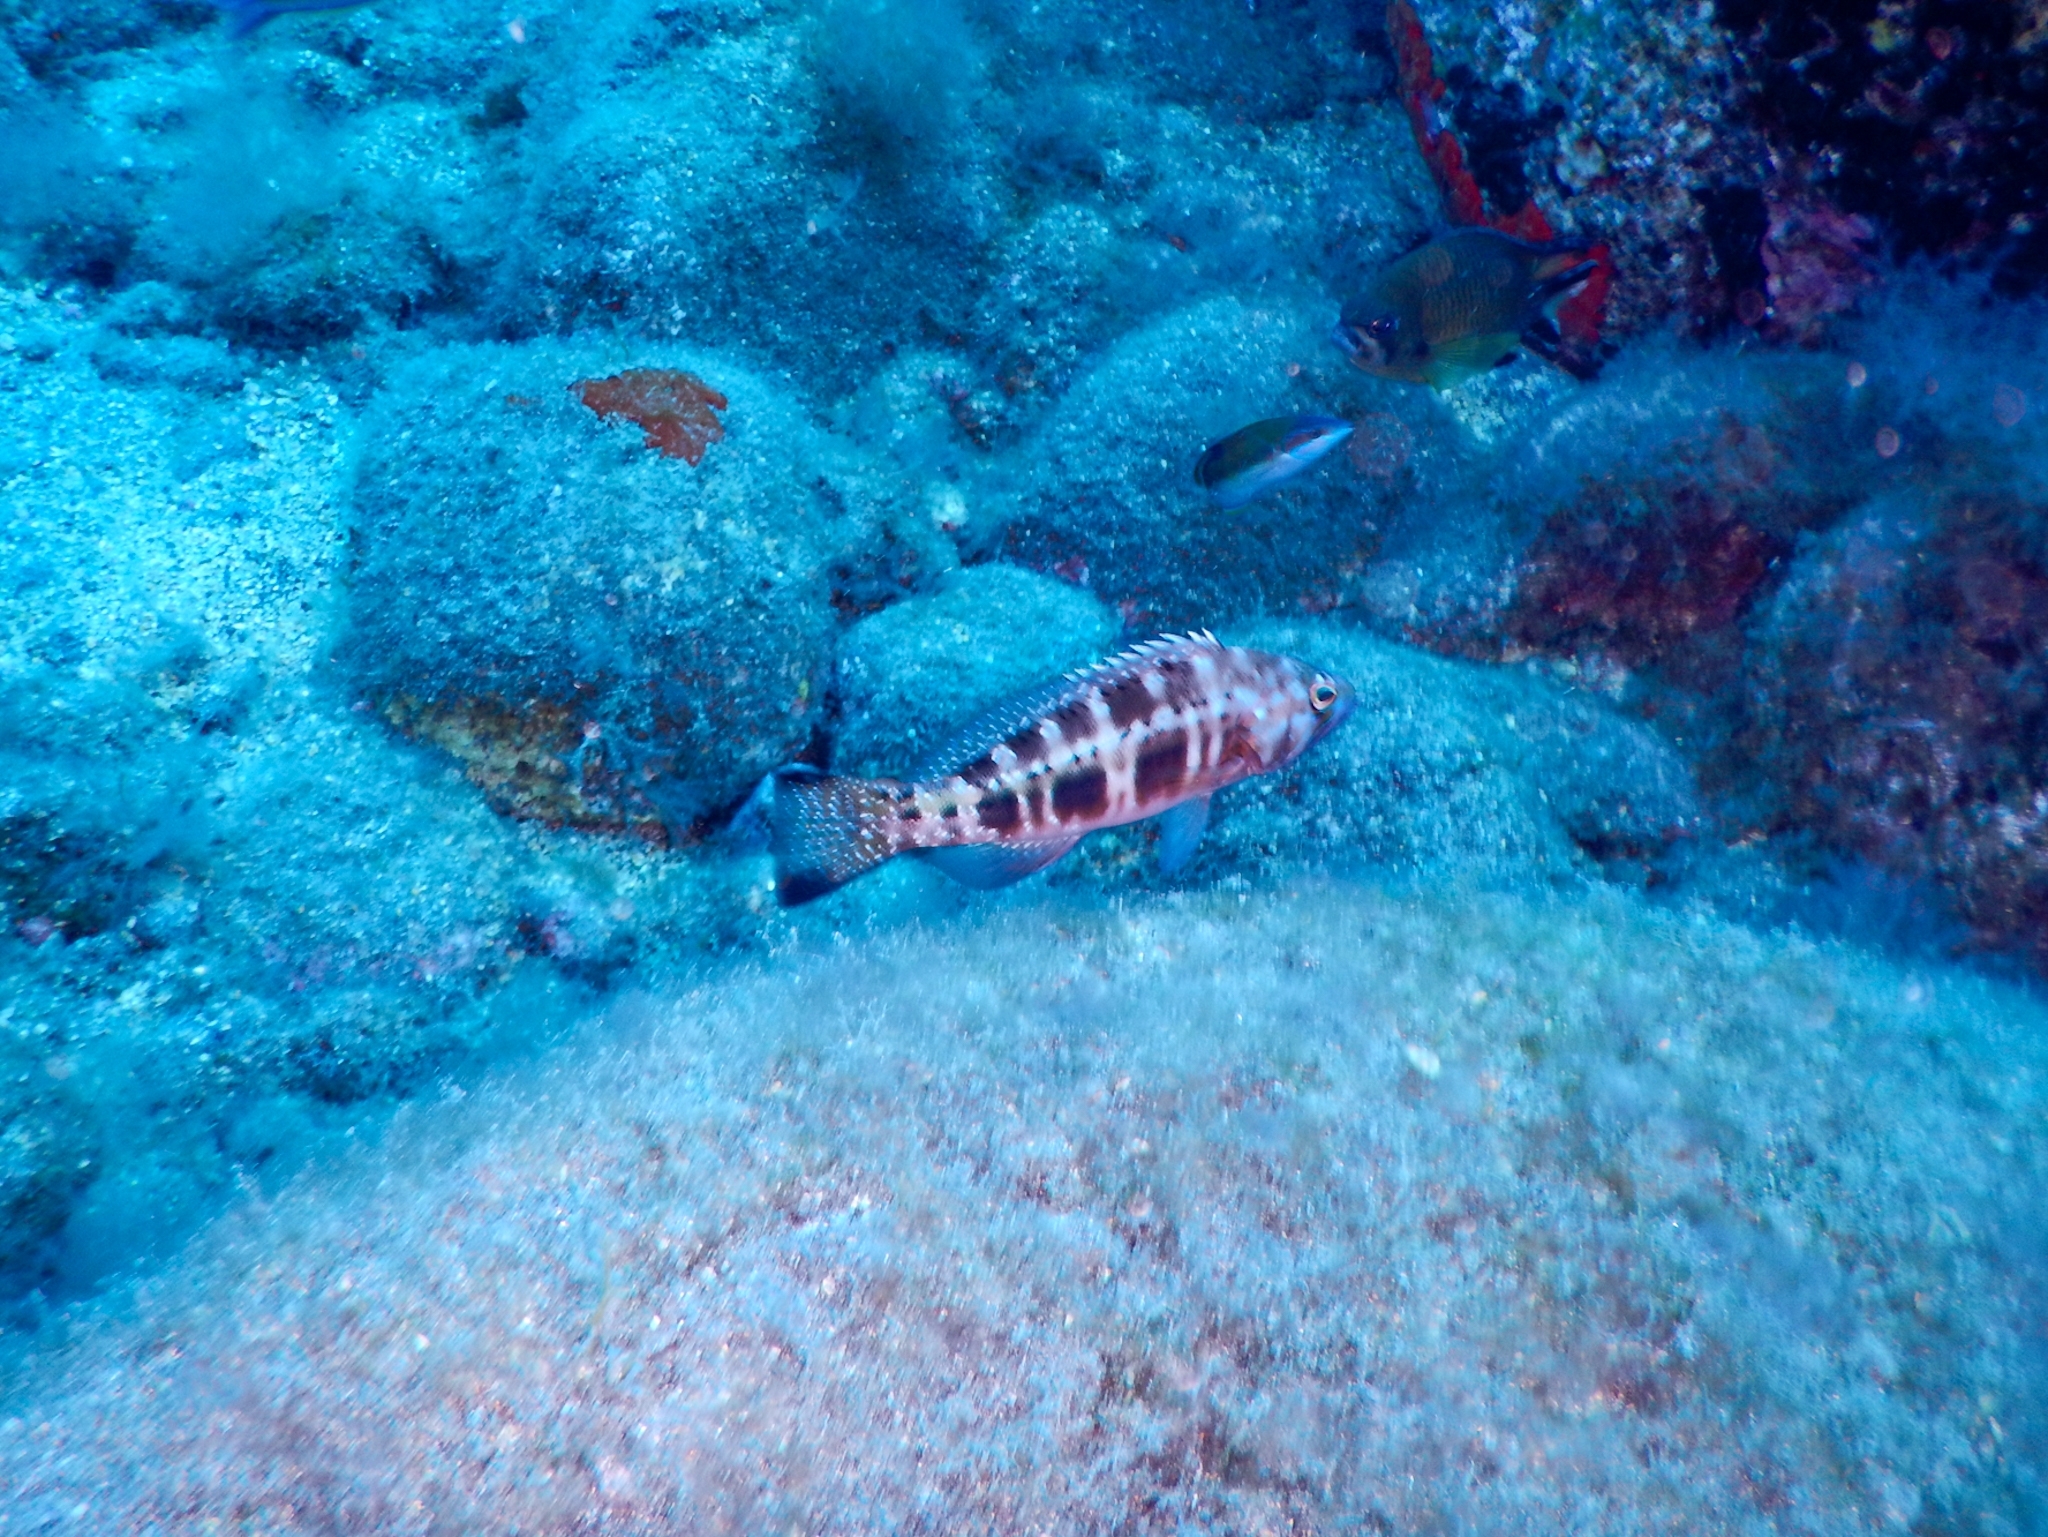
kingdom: Animalia
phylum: Chordata
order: Perciformes
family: Serranidae
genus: Serranus
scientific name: Serranus atricauda
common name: Blacktail comber
